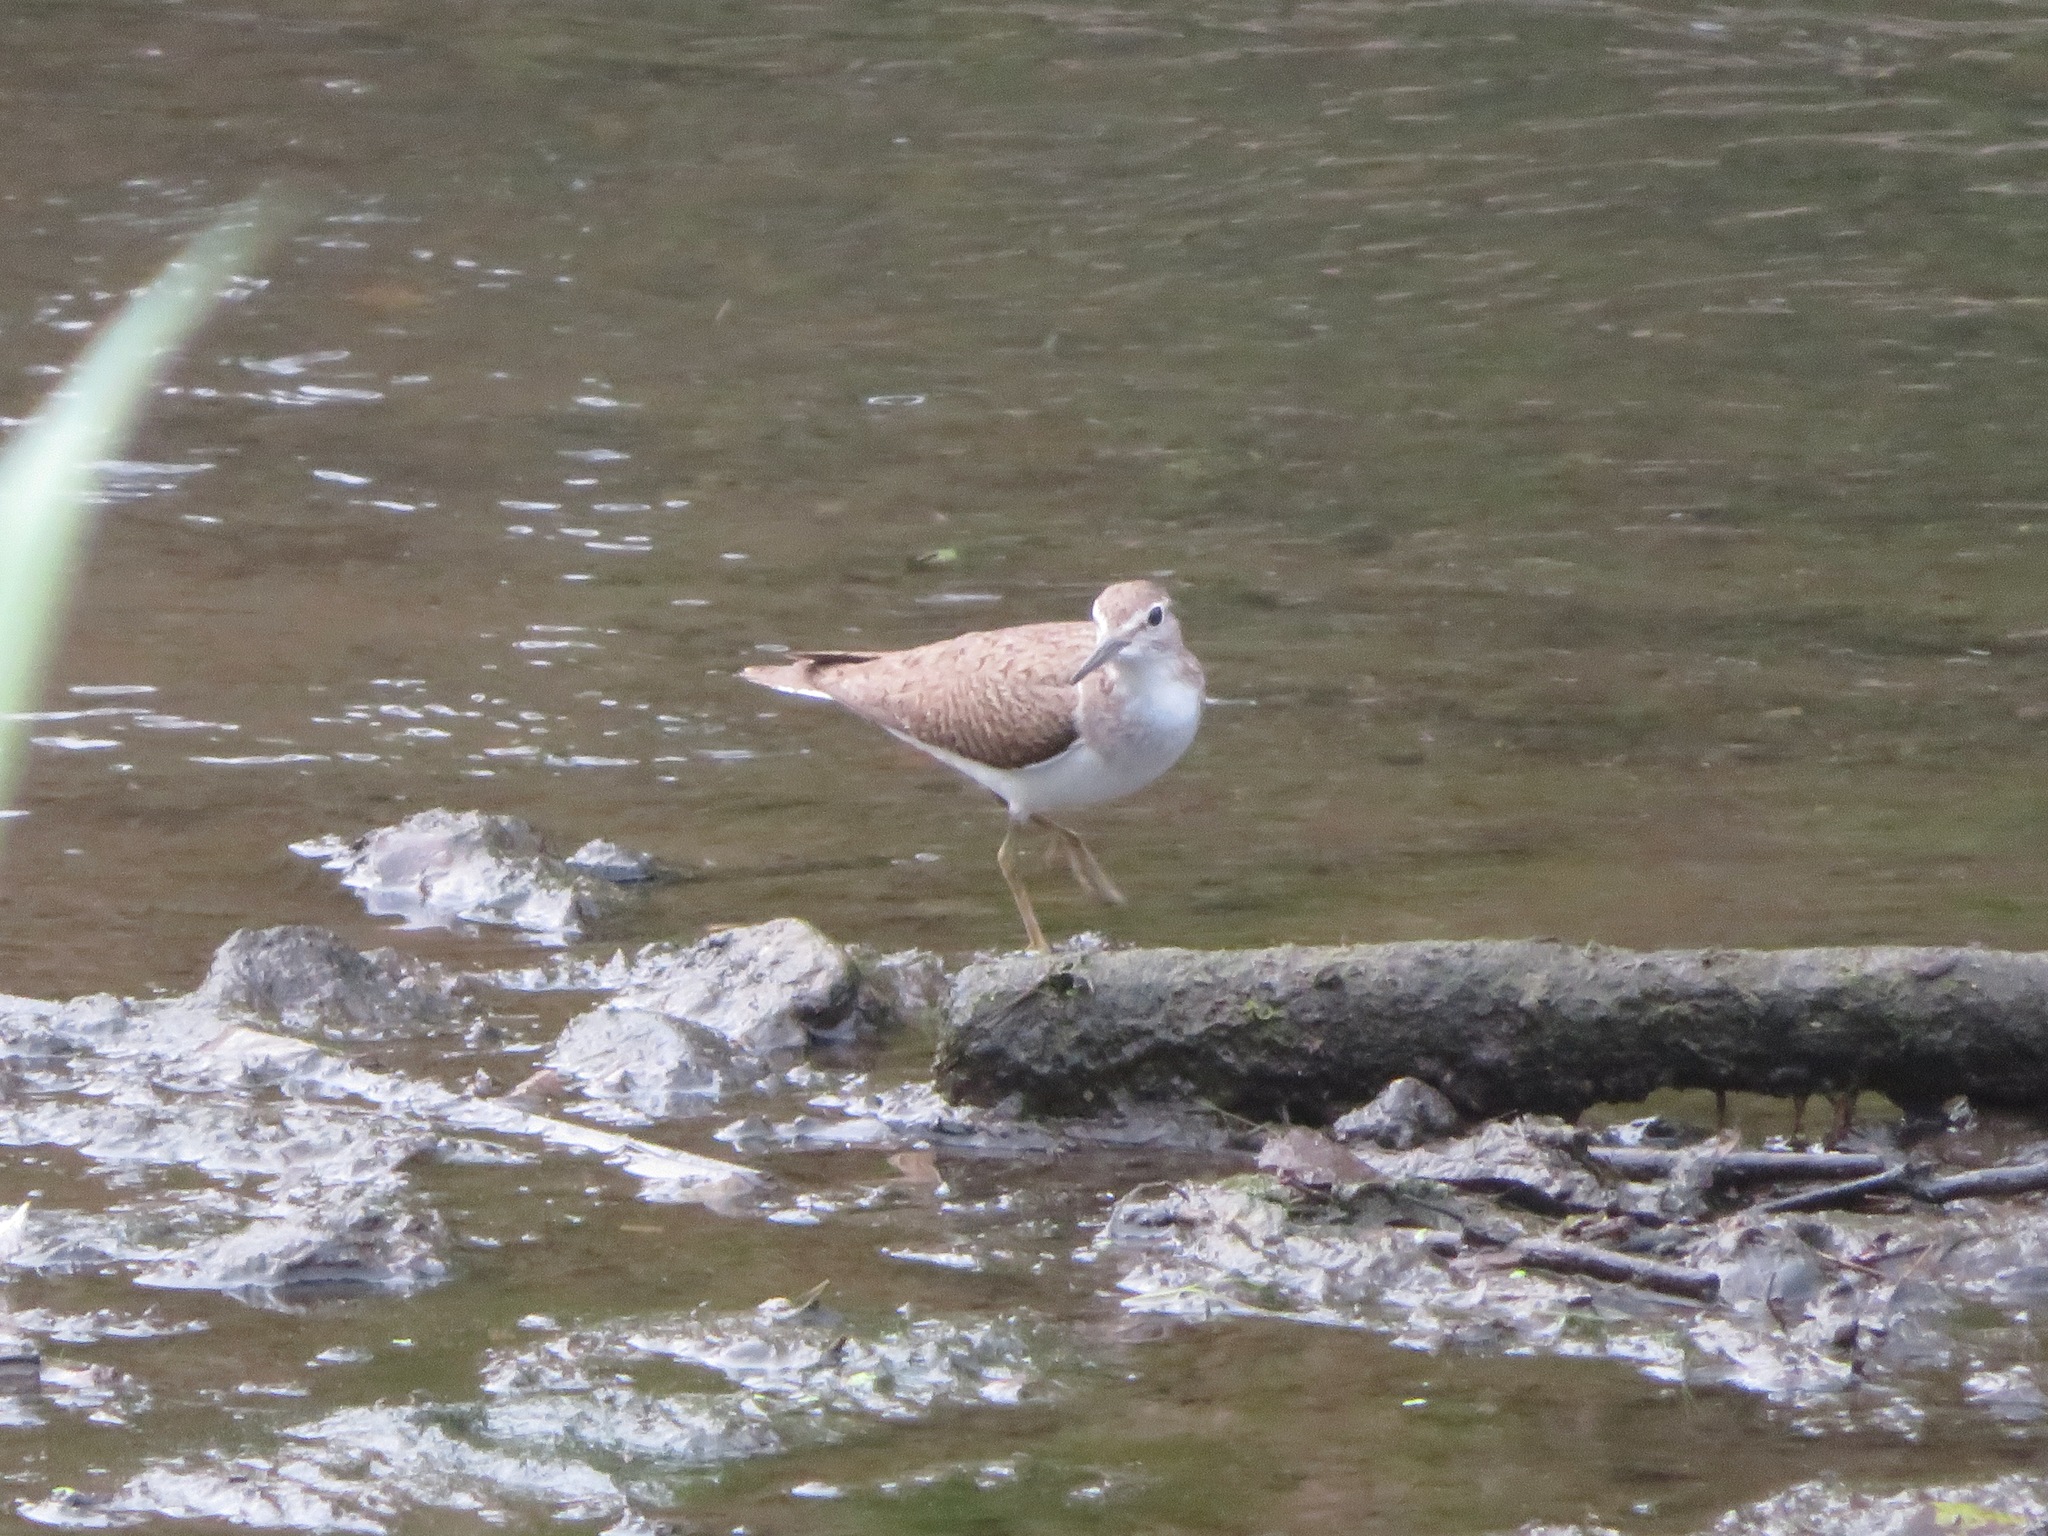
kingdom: Animalia
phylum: Chordata
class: Aves
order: Charadriiformes
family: Scolopacidae
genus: Actitis
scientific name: Actitis hypoleucos
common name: Common sandpiper
